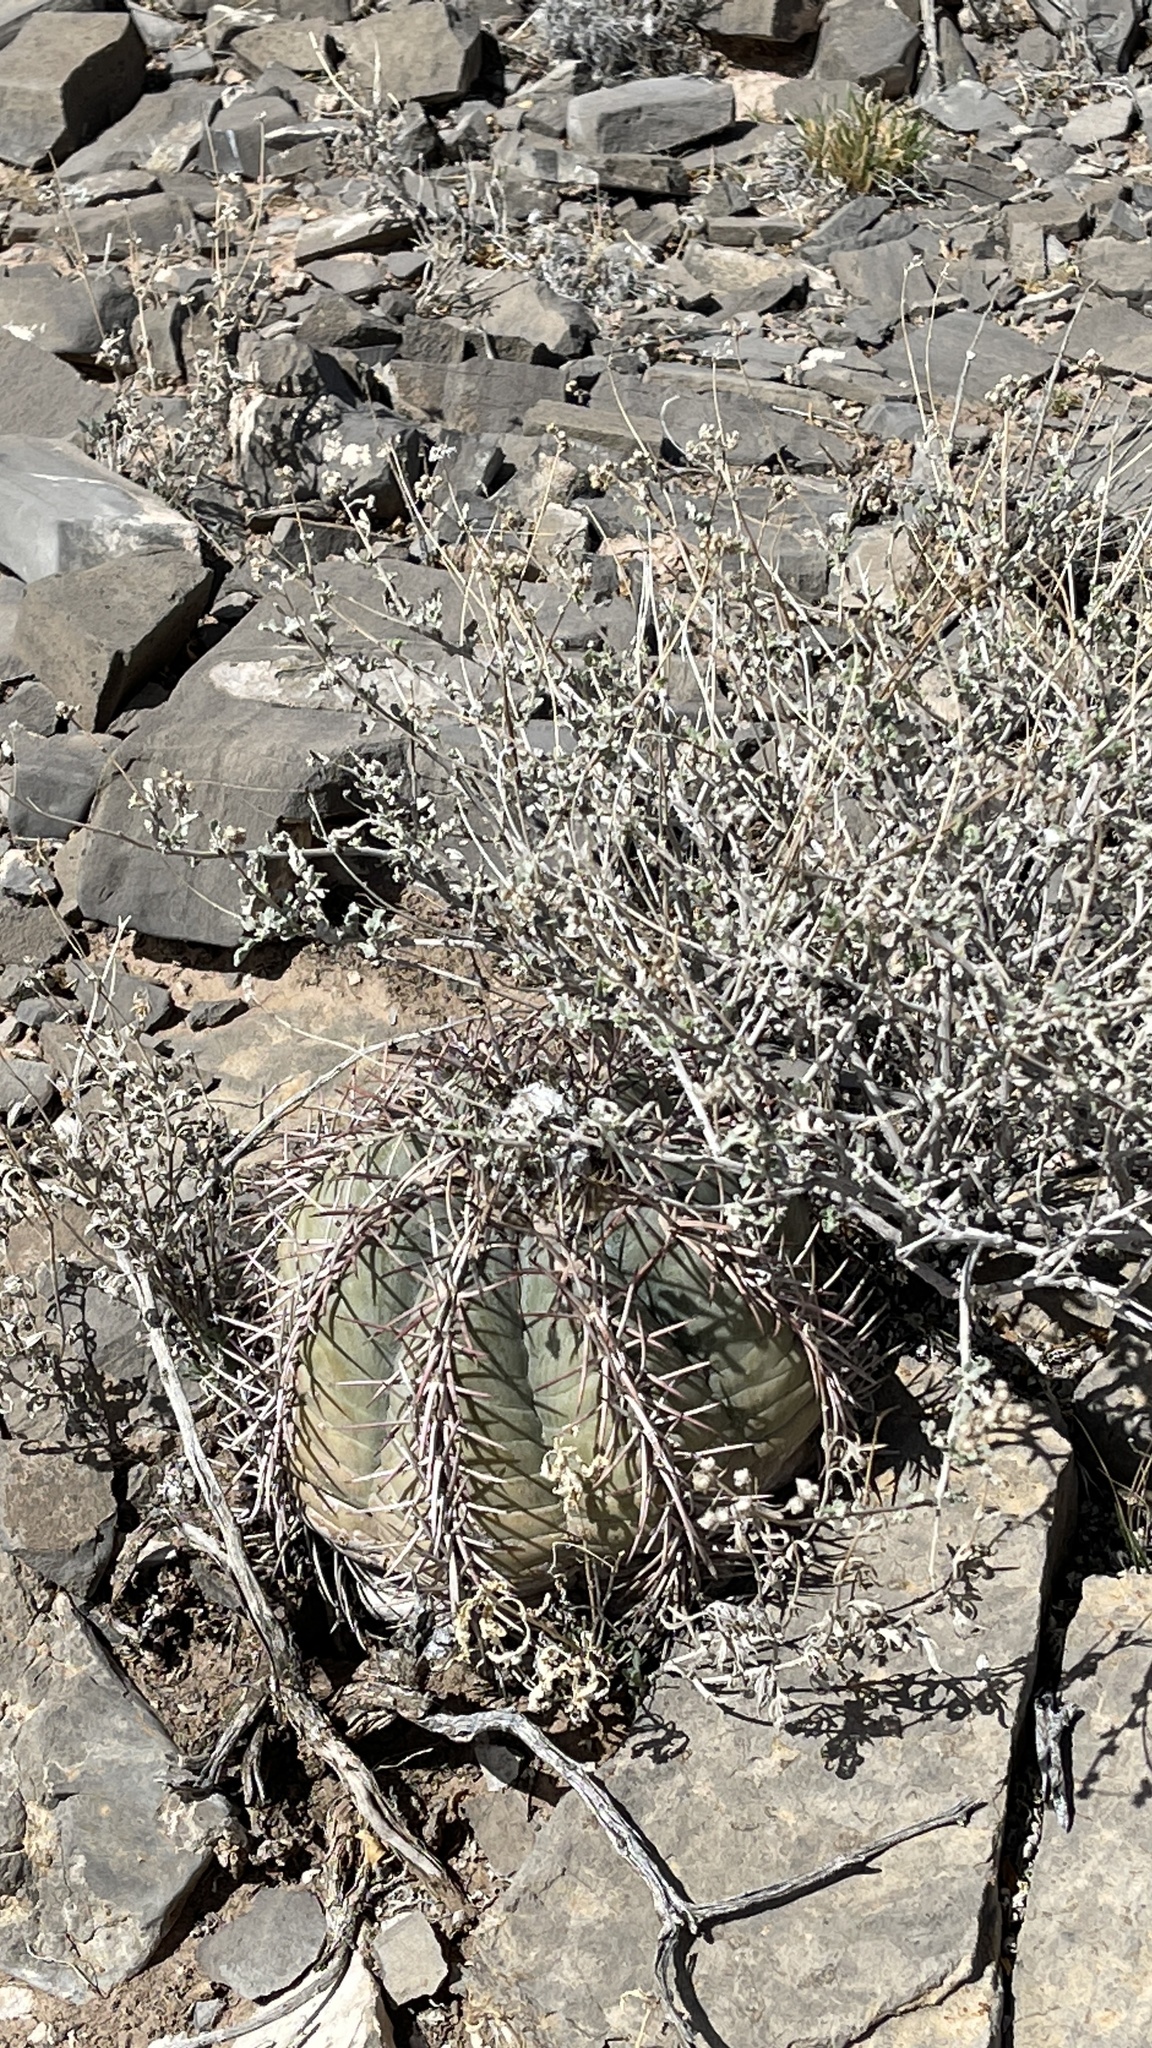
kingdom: Plantae
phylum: Tracheophyta
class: Magnoliopsida
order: Caryophyllales
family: Cactaceae
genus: Echinocactus
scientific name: Echinocactus horizonthalonius
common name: Devilshead
